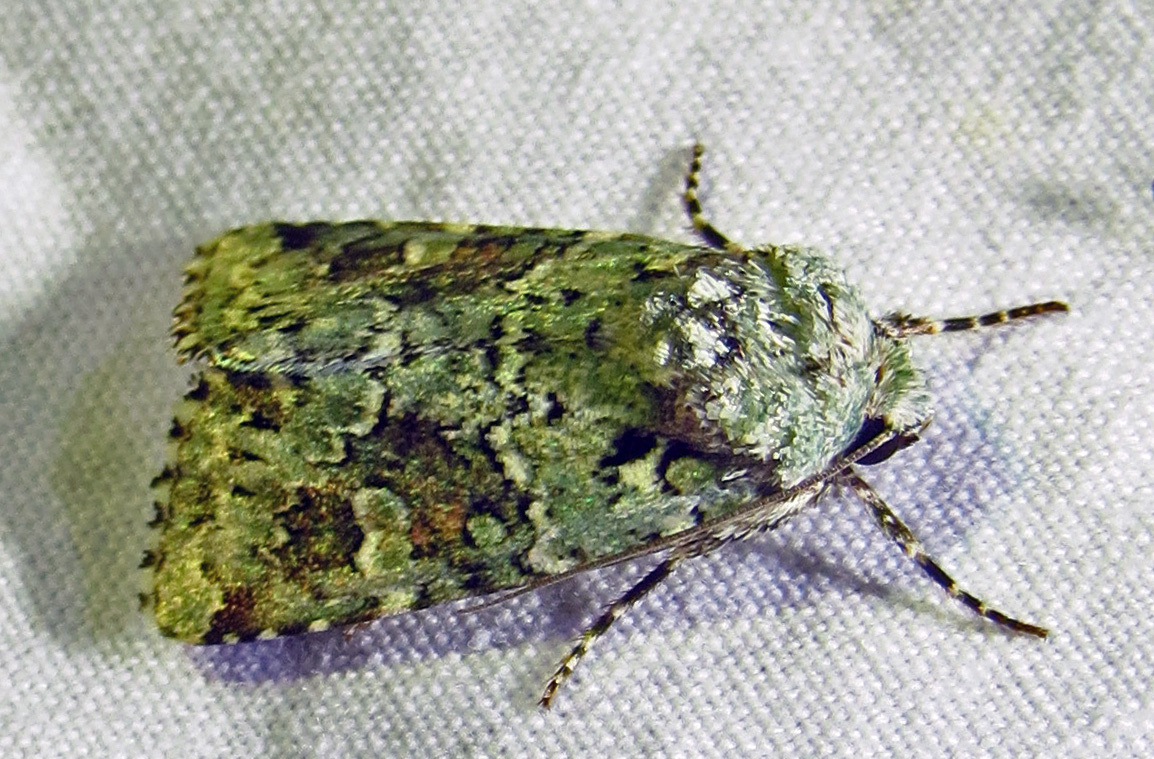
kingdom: Animalia
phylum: Arthropoda
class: Insecta
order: Lepidoptera
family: Noctuidae
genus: Lacinipolia
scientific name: Lacinipolia laudabilis
